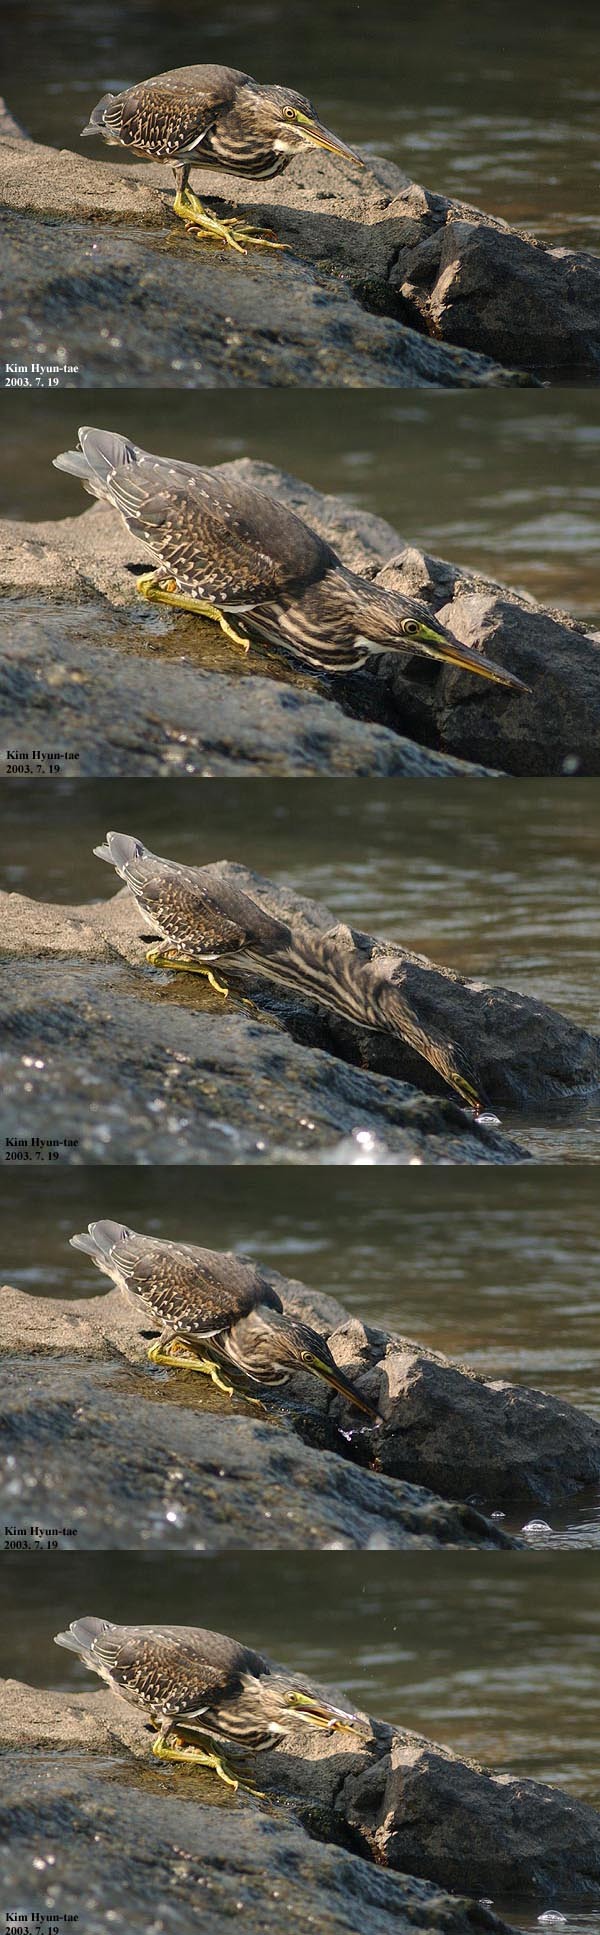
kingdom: Animalia
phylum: Chordata
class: Aves
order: Pelecaniformes
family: Ardeidae
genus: Butorides
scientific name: Butorides striata
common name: Striated heron
